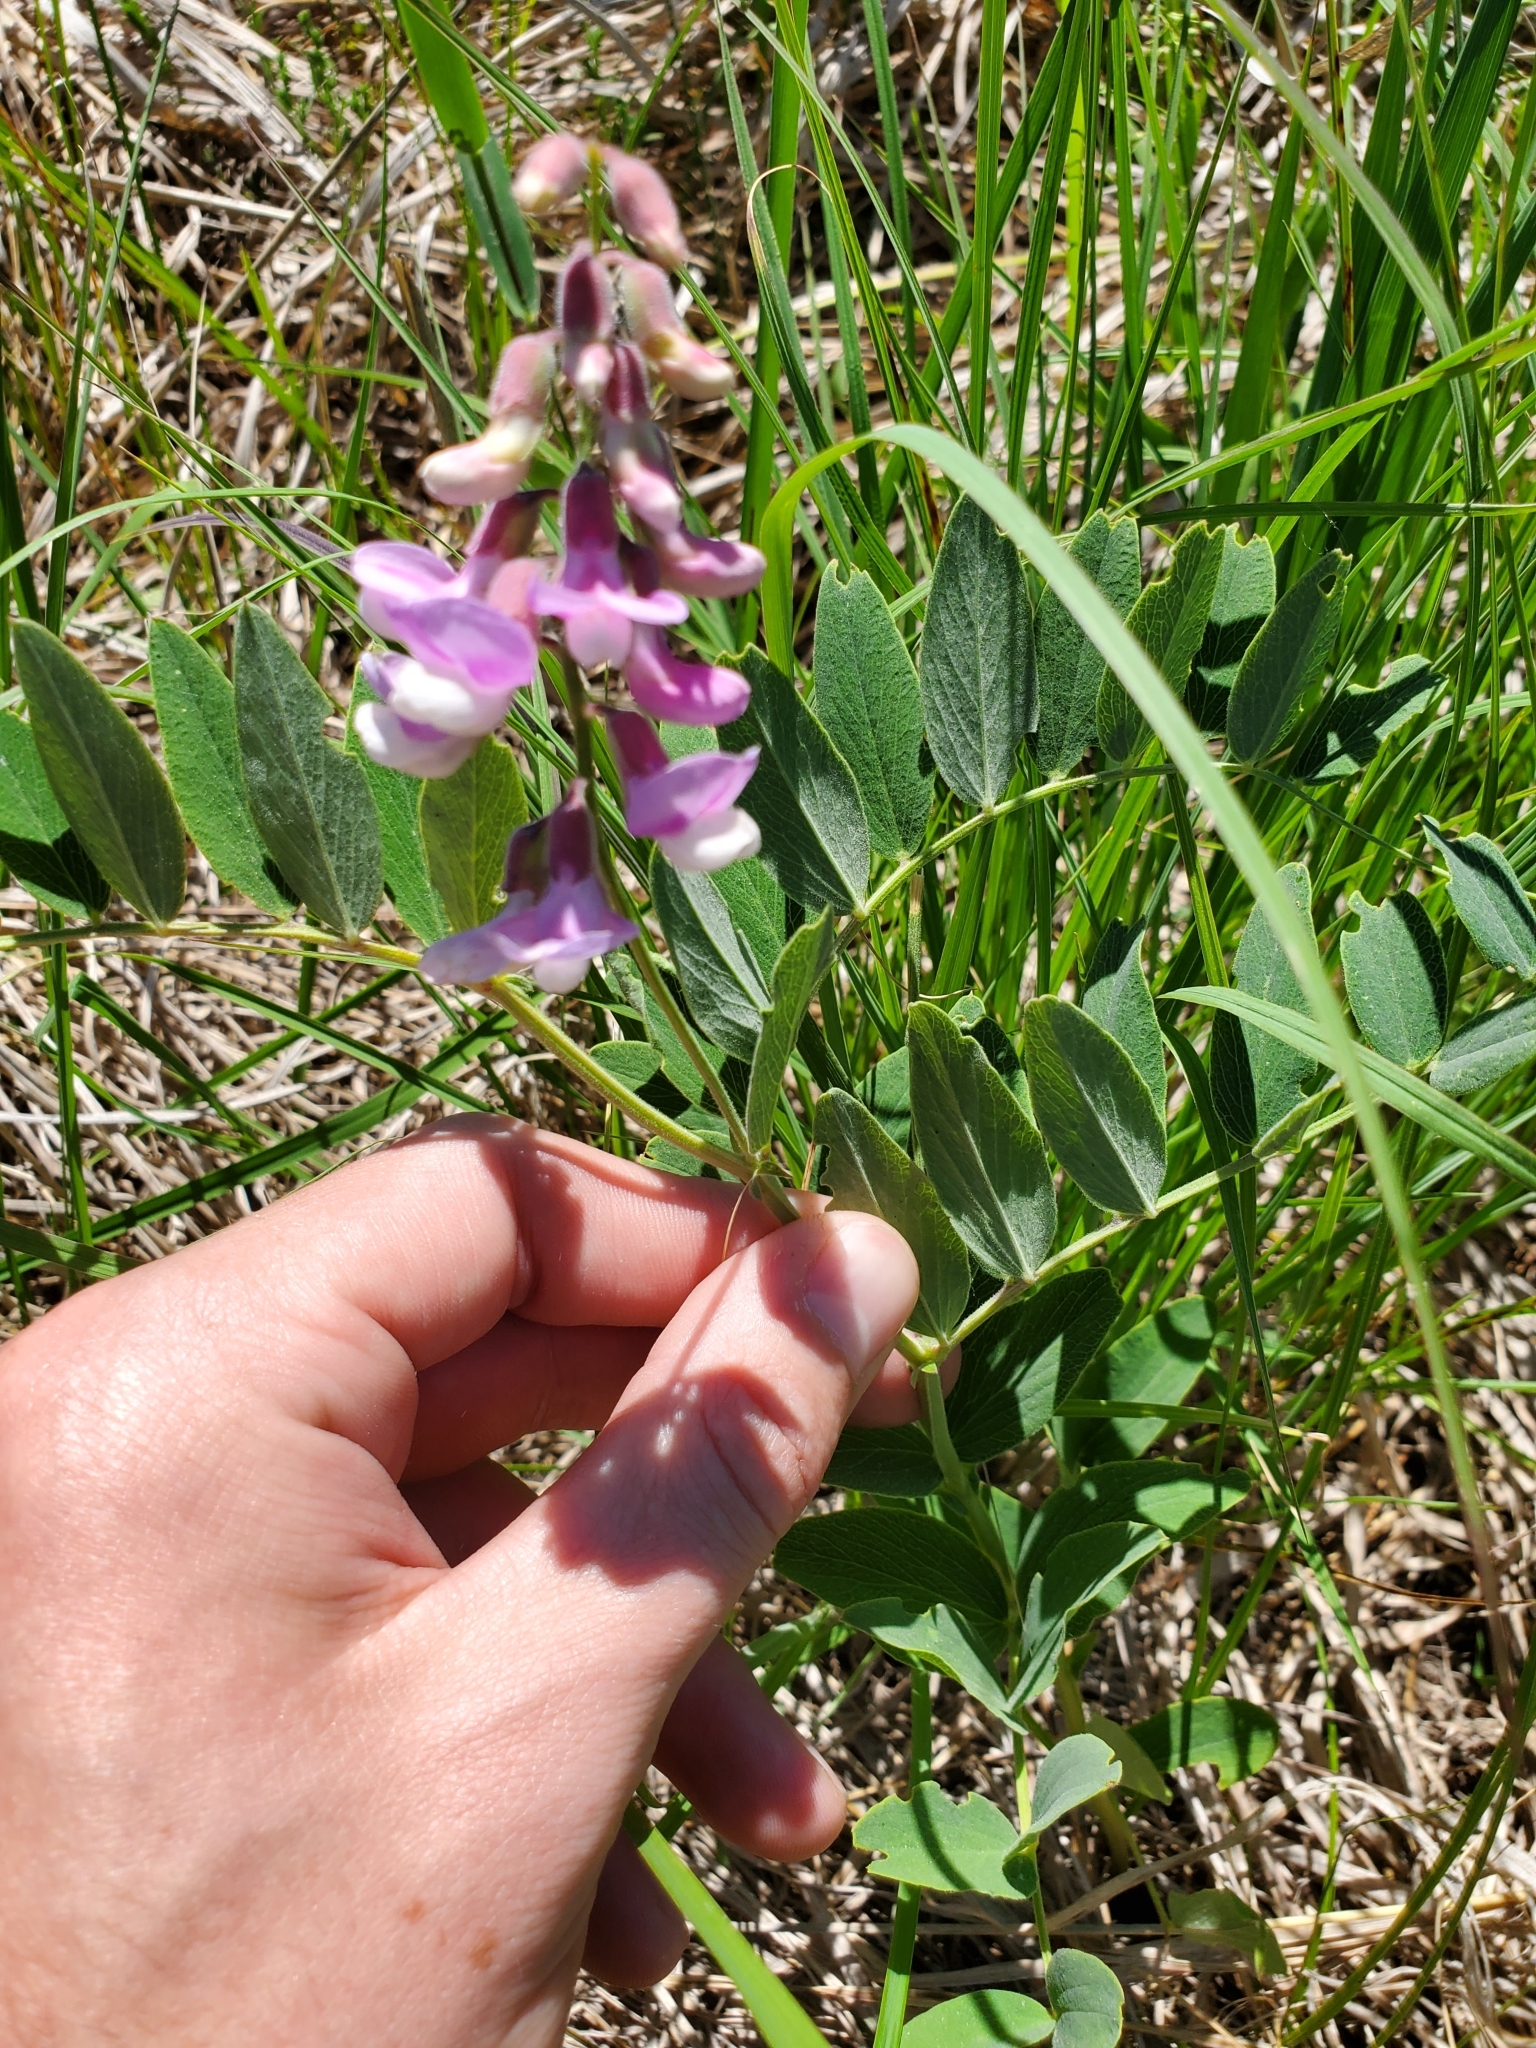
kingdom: Plantae
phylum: Tracheophyta
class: Magnoliopsida
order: Fabales
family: Fabaceae
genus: Lathyrus
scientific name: Lathyrus venosus
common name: Forest-pea
